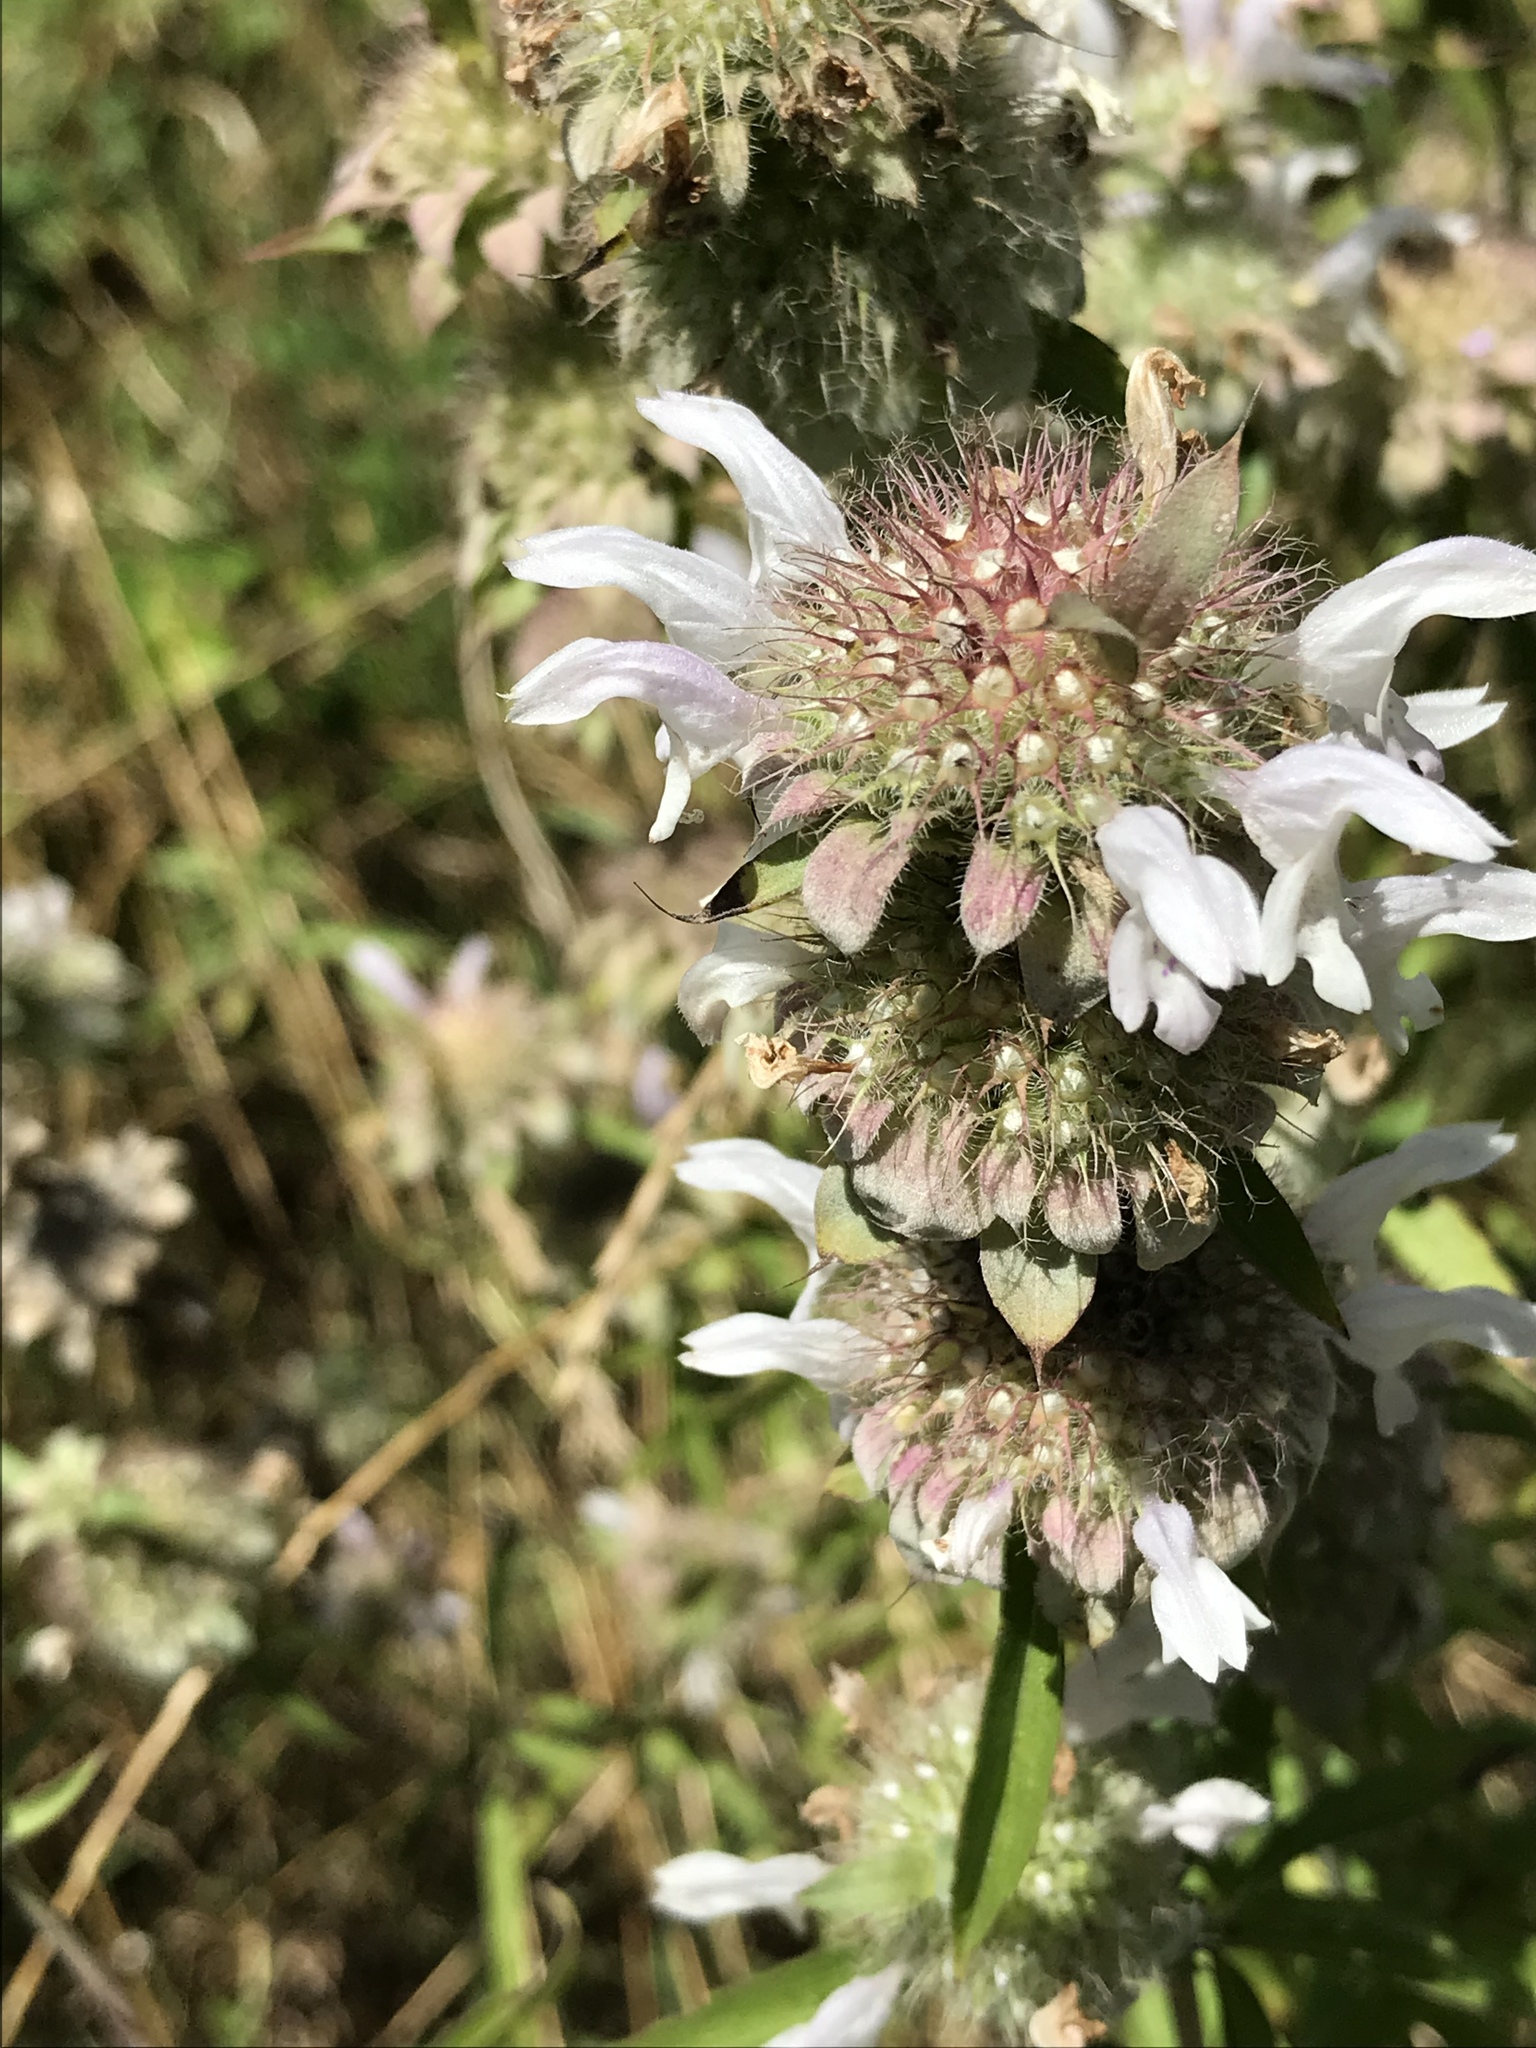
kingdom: Plantae
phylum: Tracheophyta
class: Magnoliopsida
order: Lamiales
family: Lamiaceae
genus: Monarda
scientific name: Monarda citriodora
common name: Lemon beebalm
